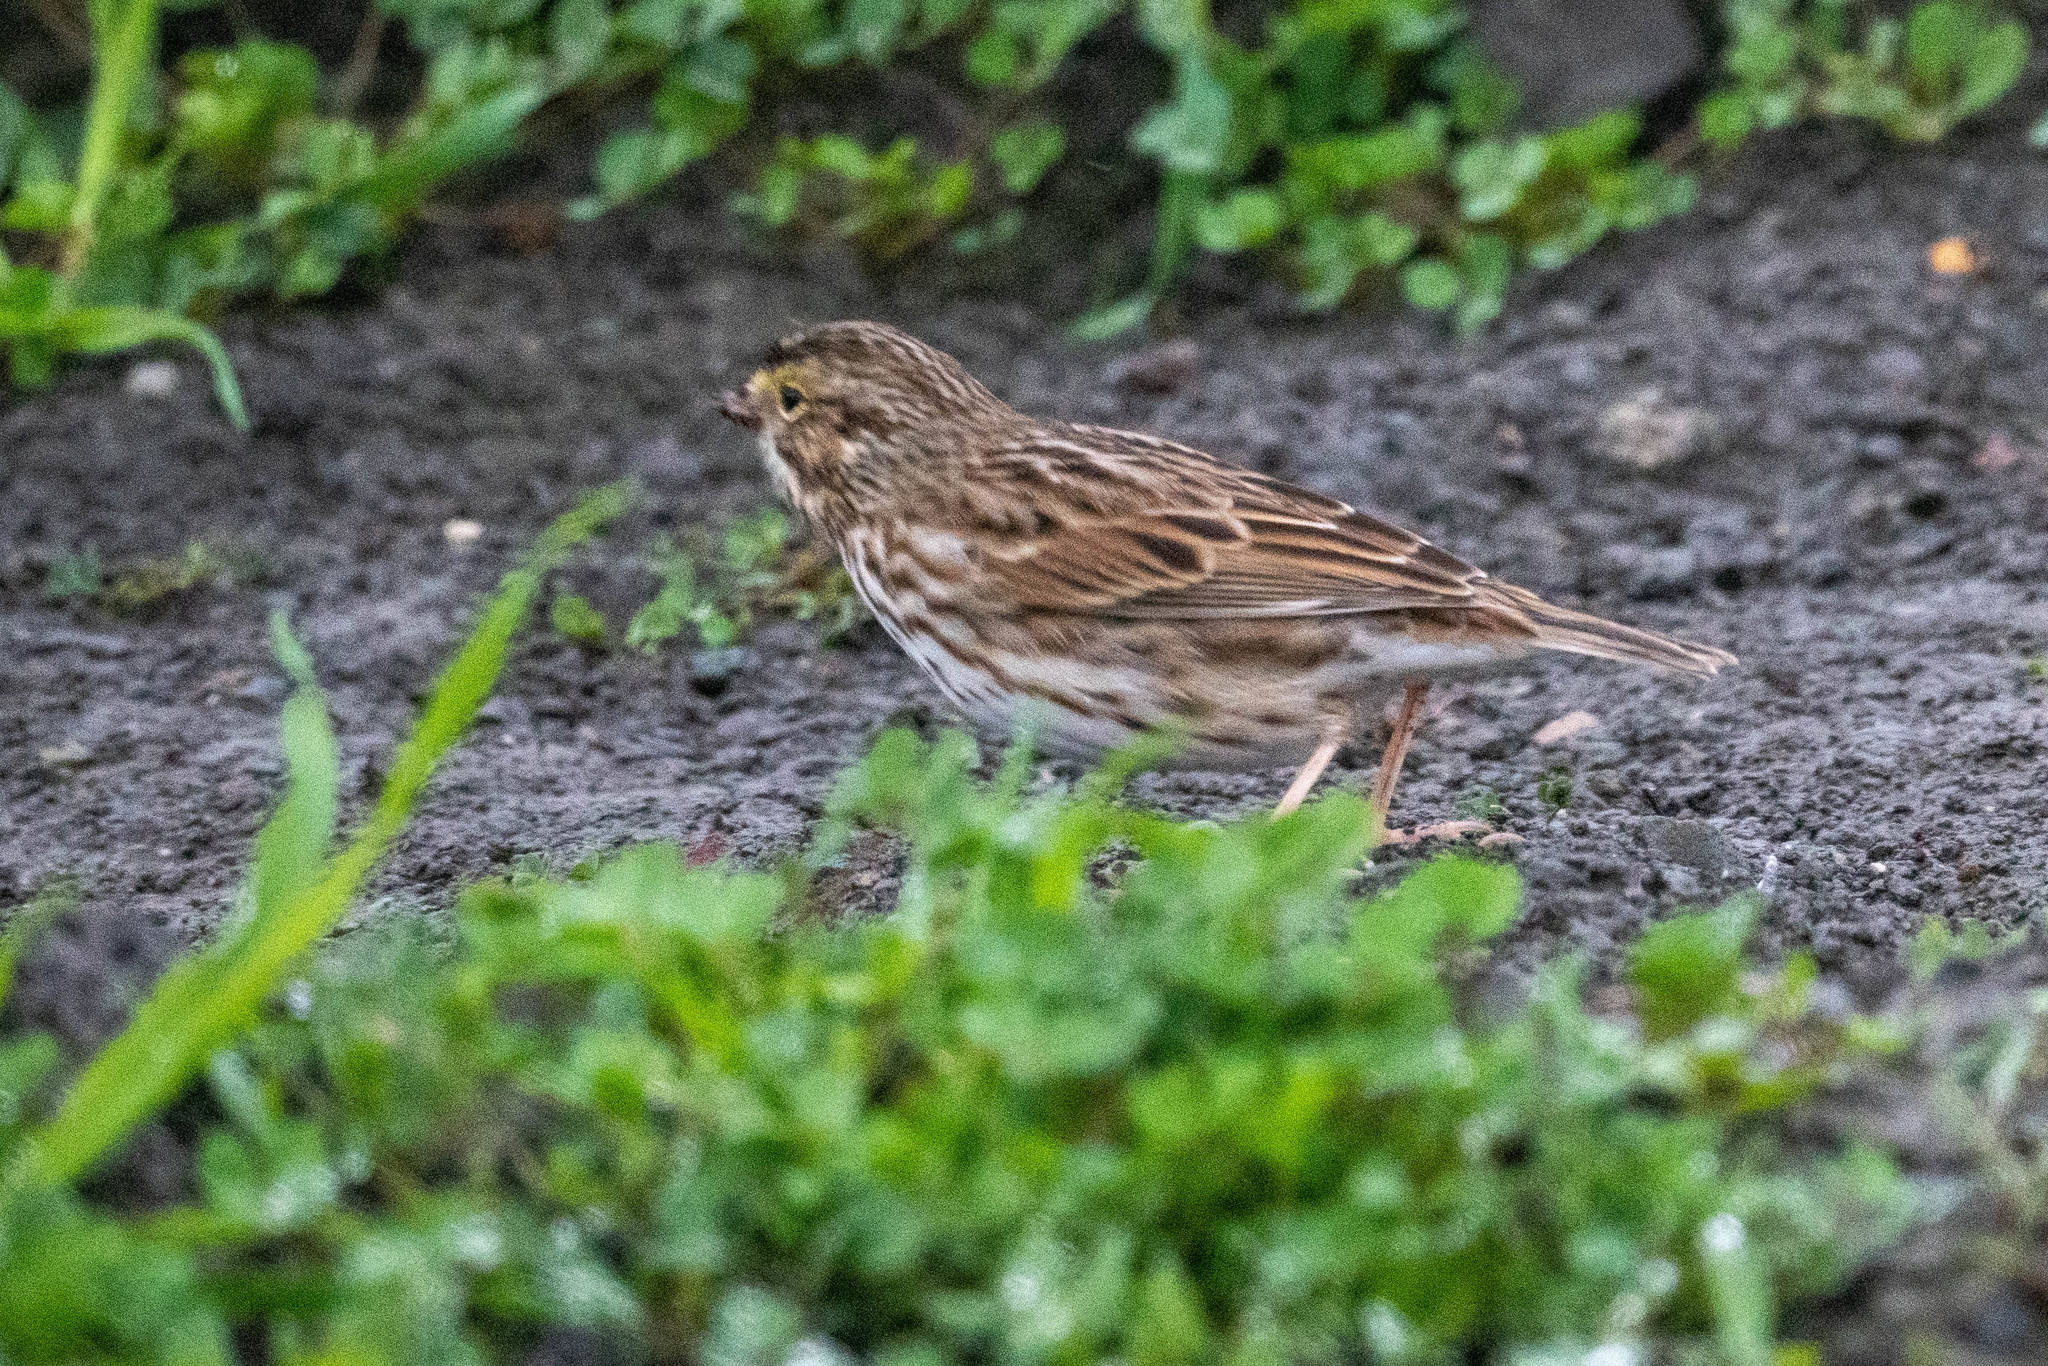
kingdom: Animalia
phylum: Chordata
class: Aves
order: Passeriformes
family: Passerellidae
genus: Passerculus
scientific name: Passerculus sandwichensis
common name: Savannah sparrow
